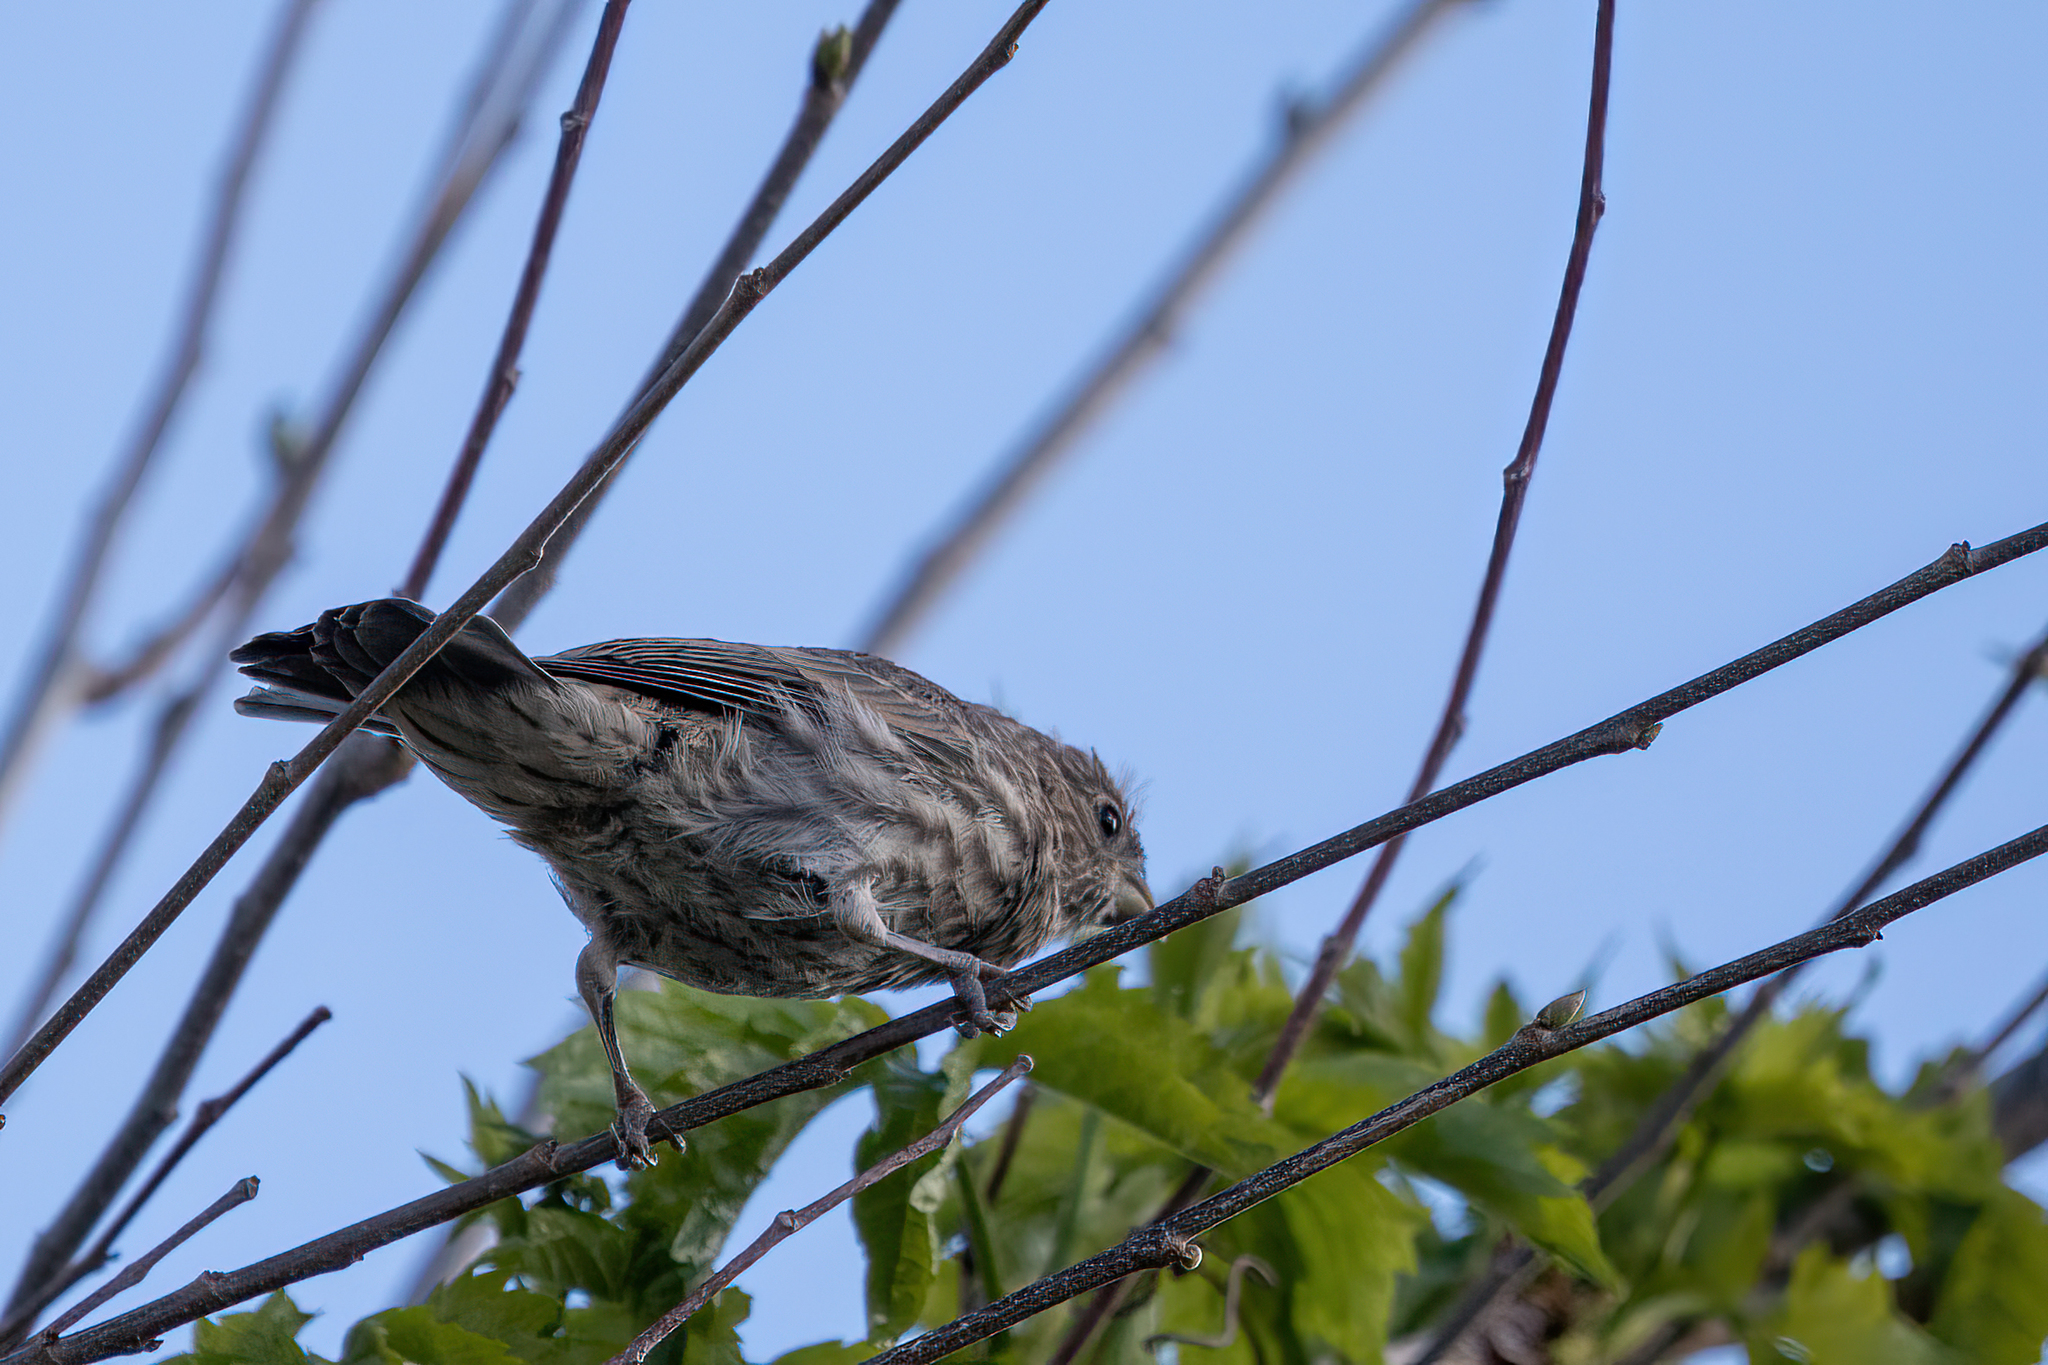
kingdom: Animalia
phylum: Chordata
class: Aves
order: Passeriformes
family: Fringillidae
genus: Haemorhous
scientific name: Haemorhous mexicanus
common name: House finch
